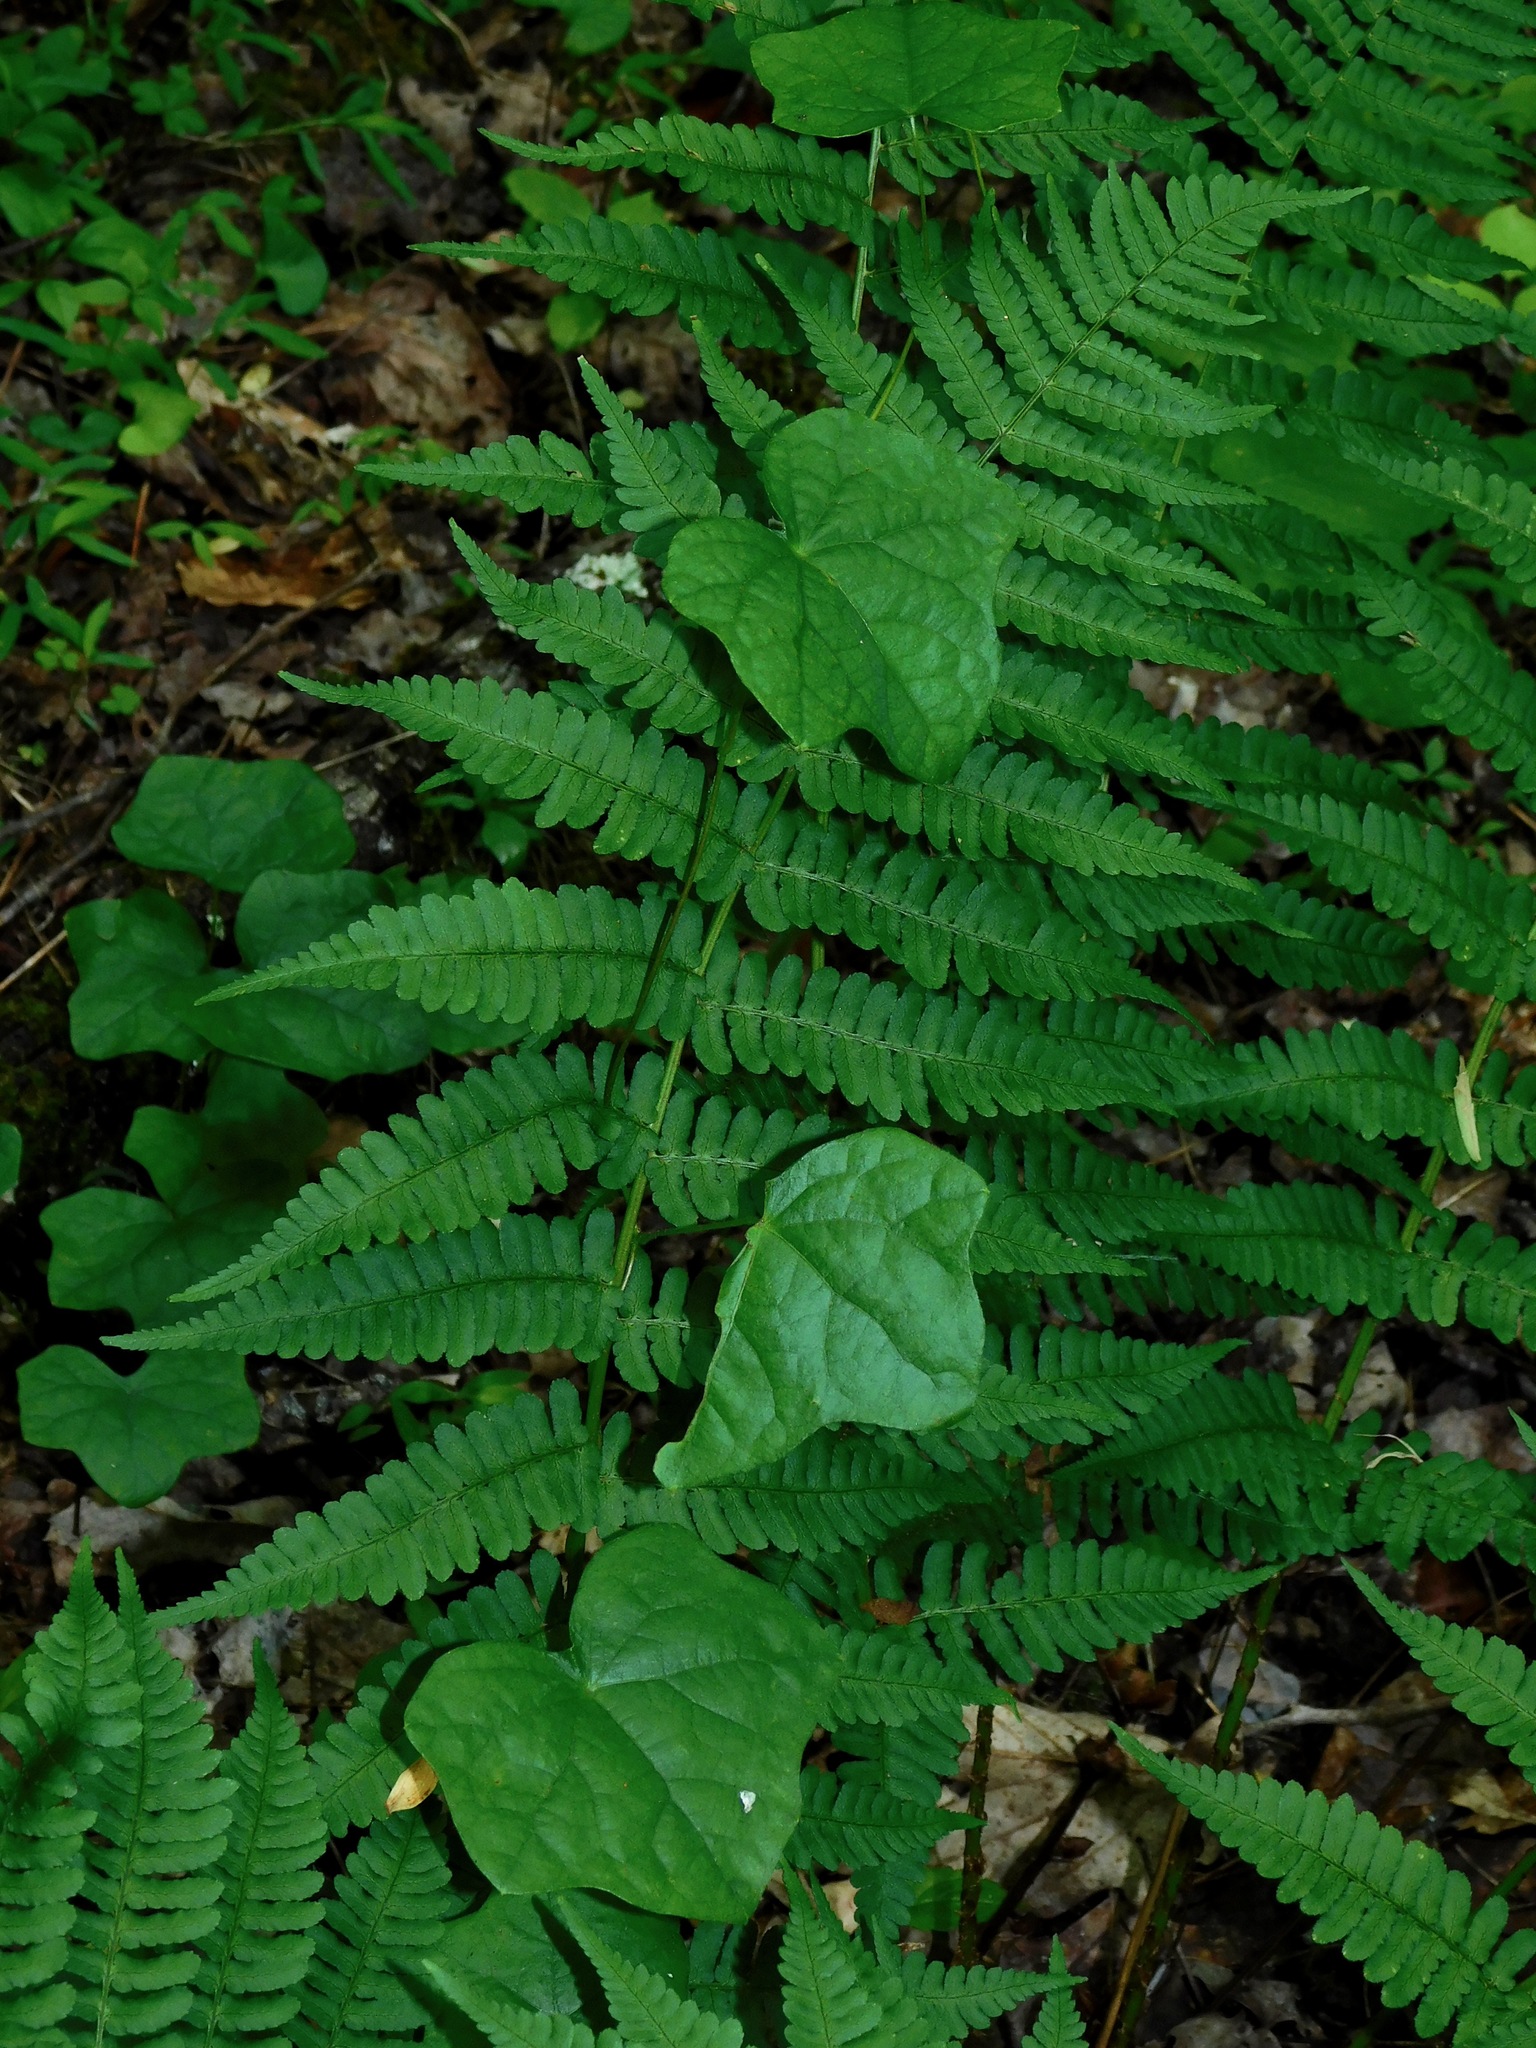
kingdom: Plantae
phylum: Tracheophyta
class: Magnoliopsida
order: Ranunculales
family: Menispermaceae
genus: Menispermum
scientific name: Menispermum canadense
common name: Moonseed
